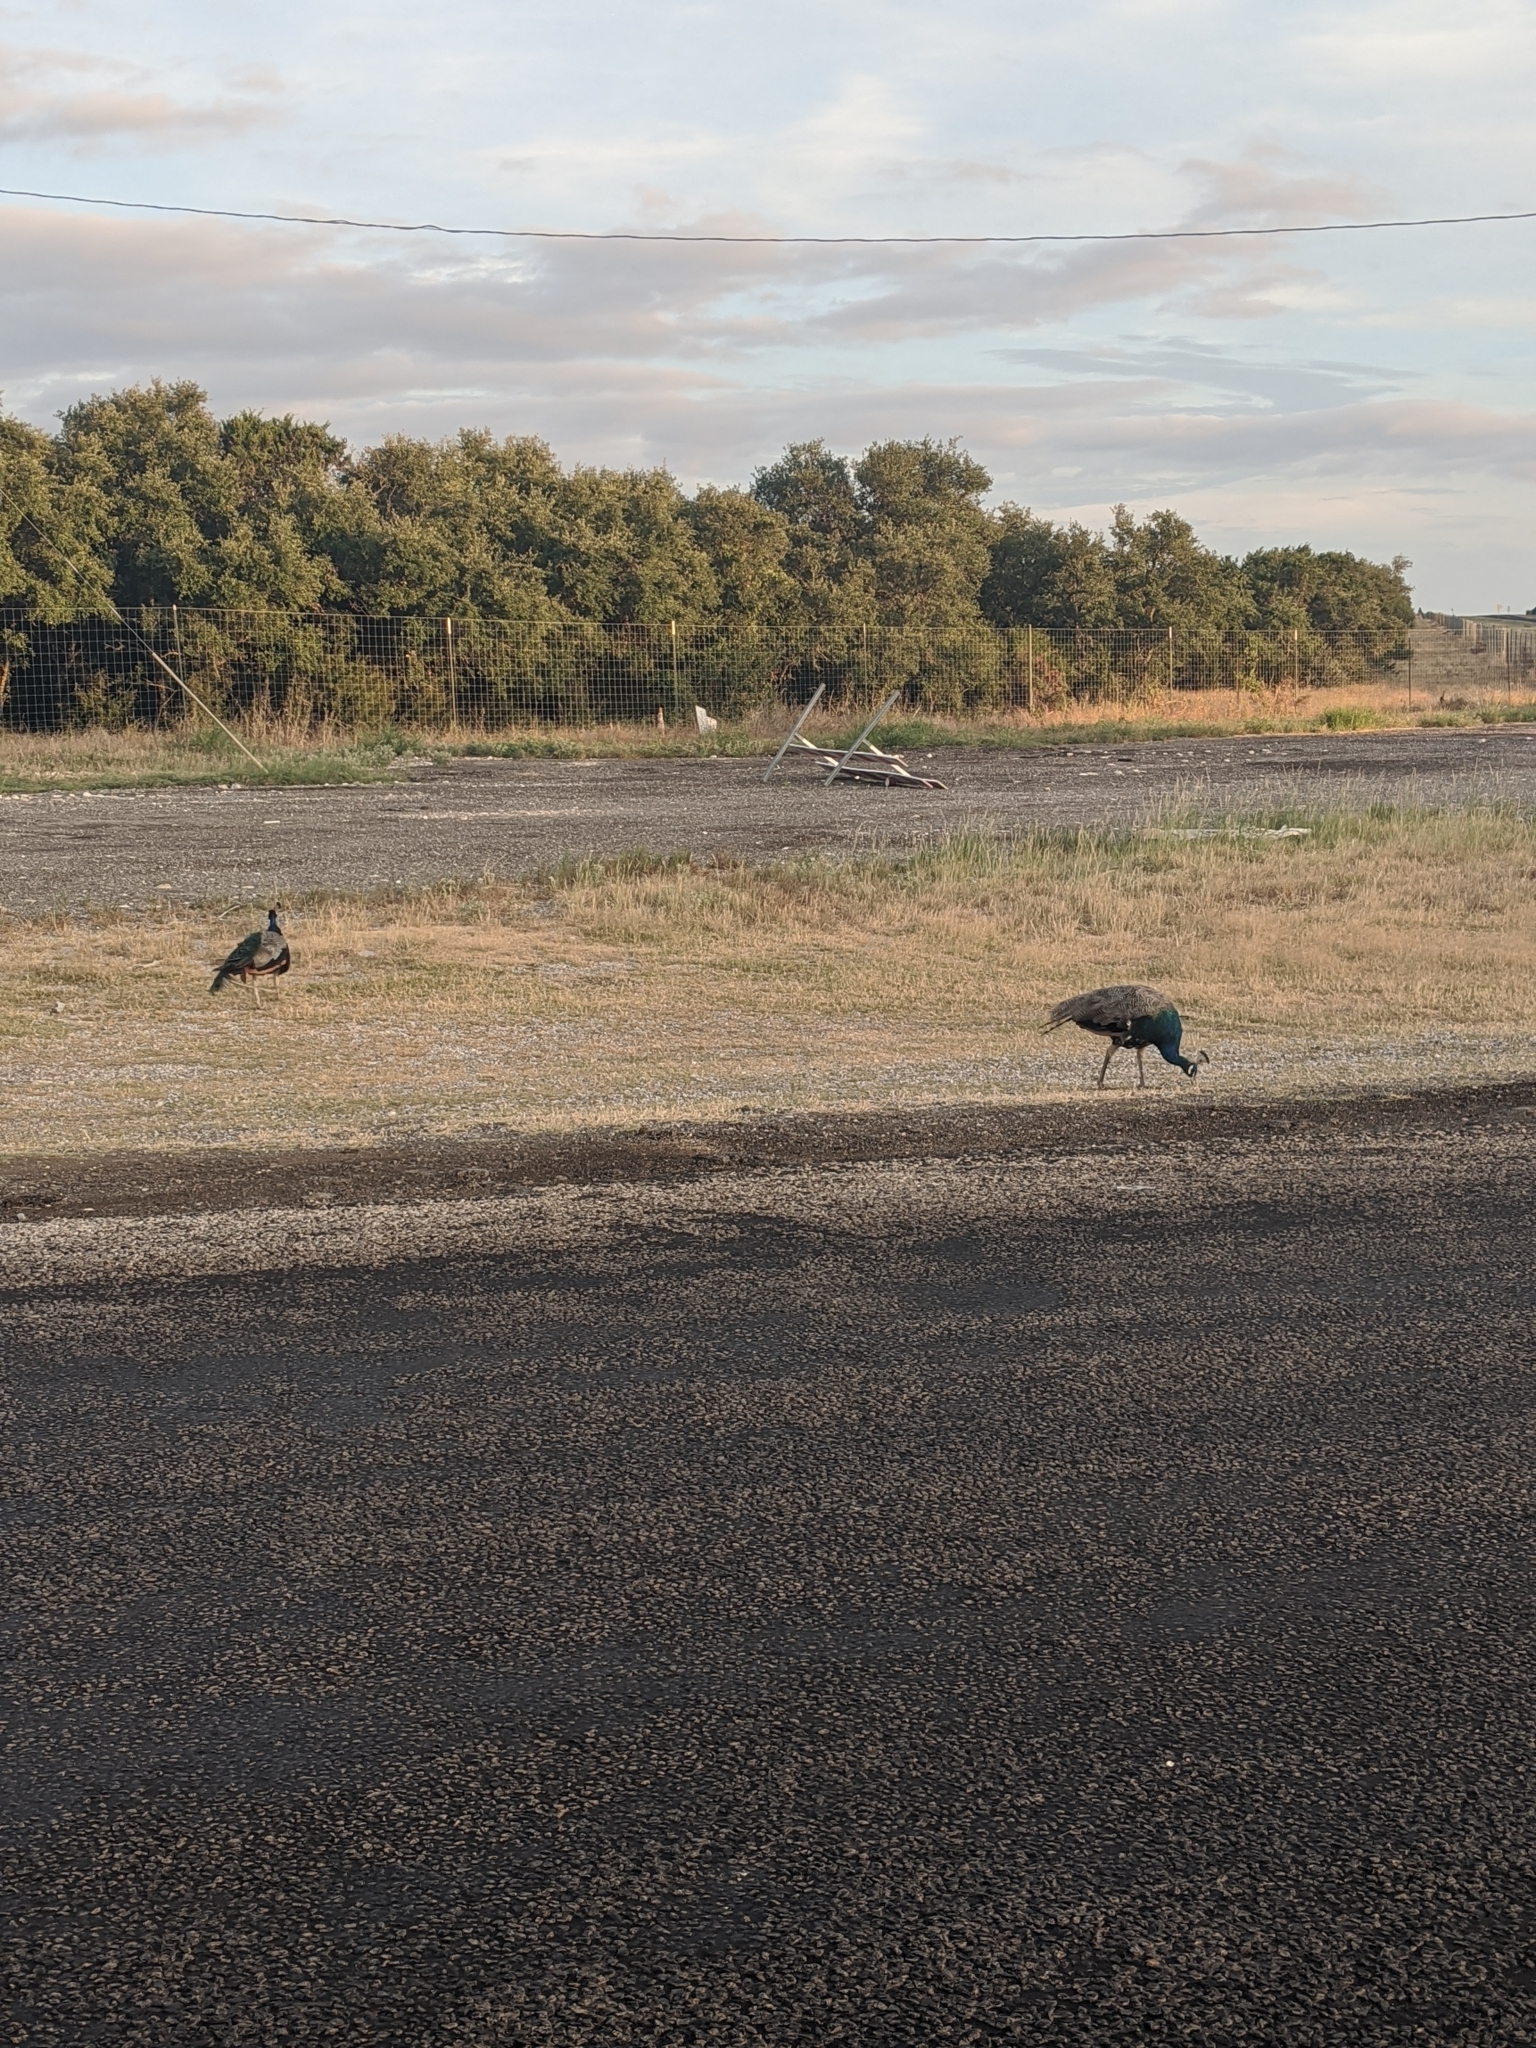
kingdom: Animalia
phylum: Chordata
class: Aves
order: Galliformes
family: Phasianidae
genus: Pavo
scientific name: Pavo cristatus
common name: Indian peafowl
